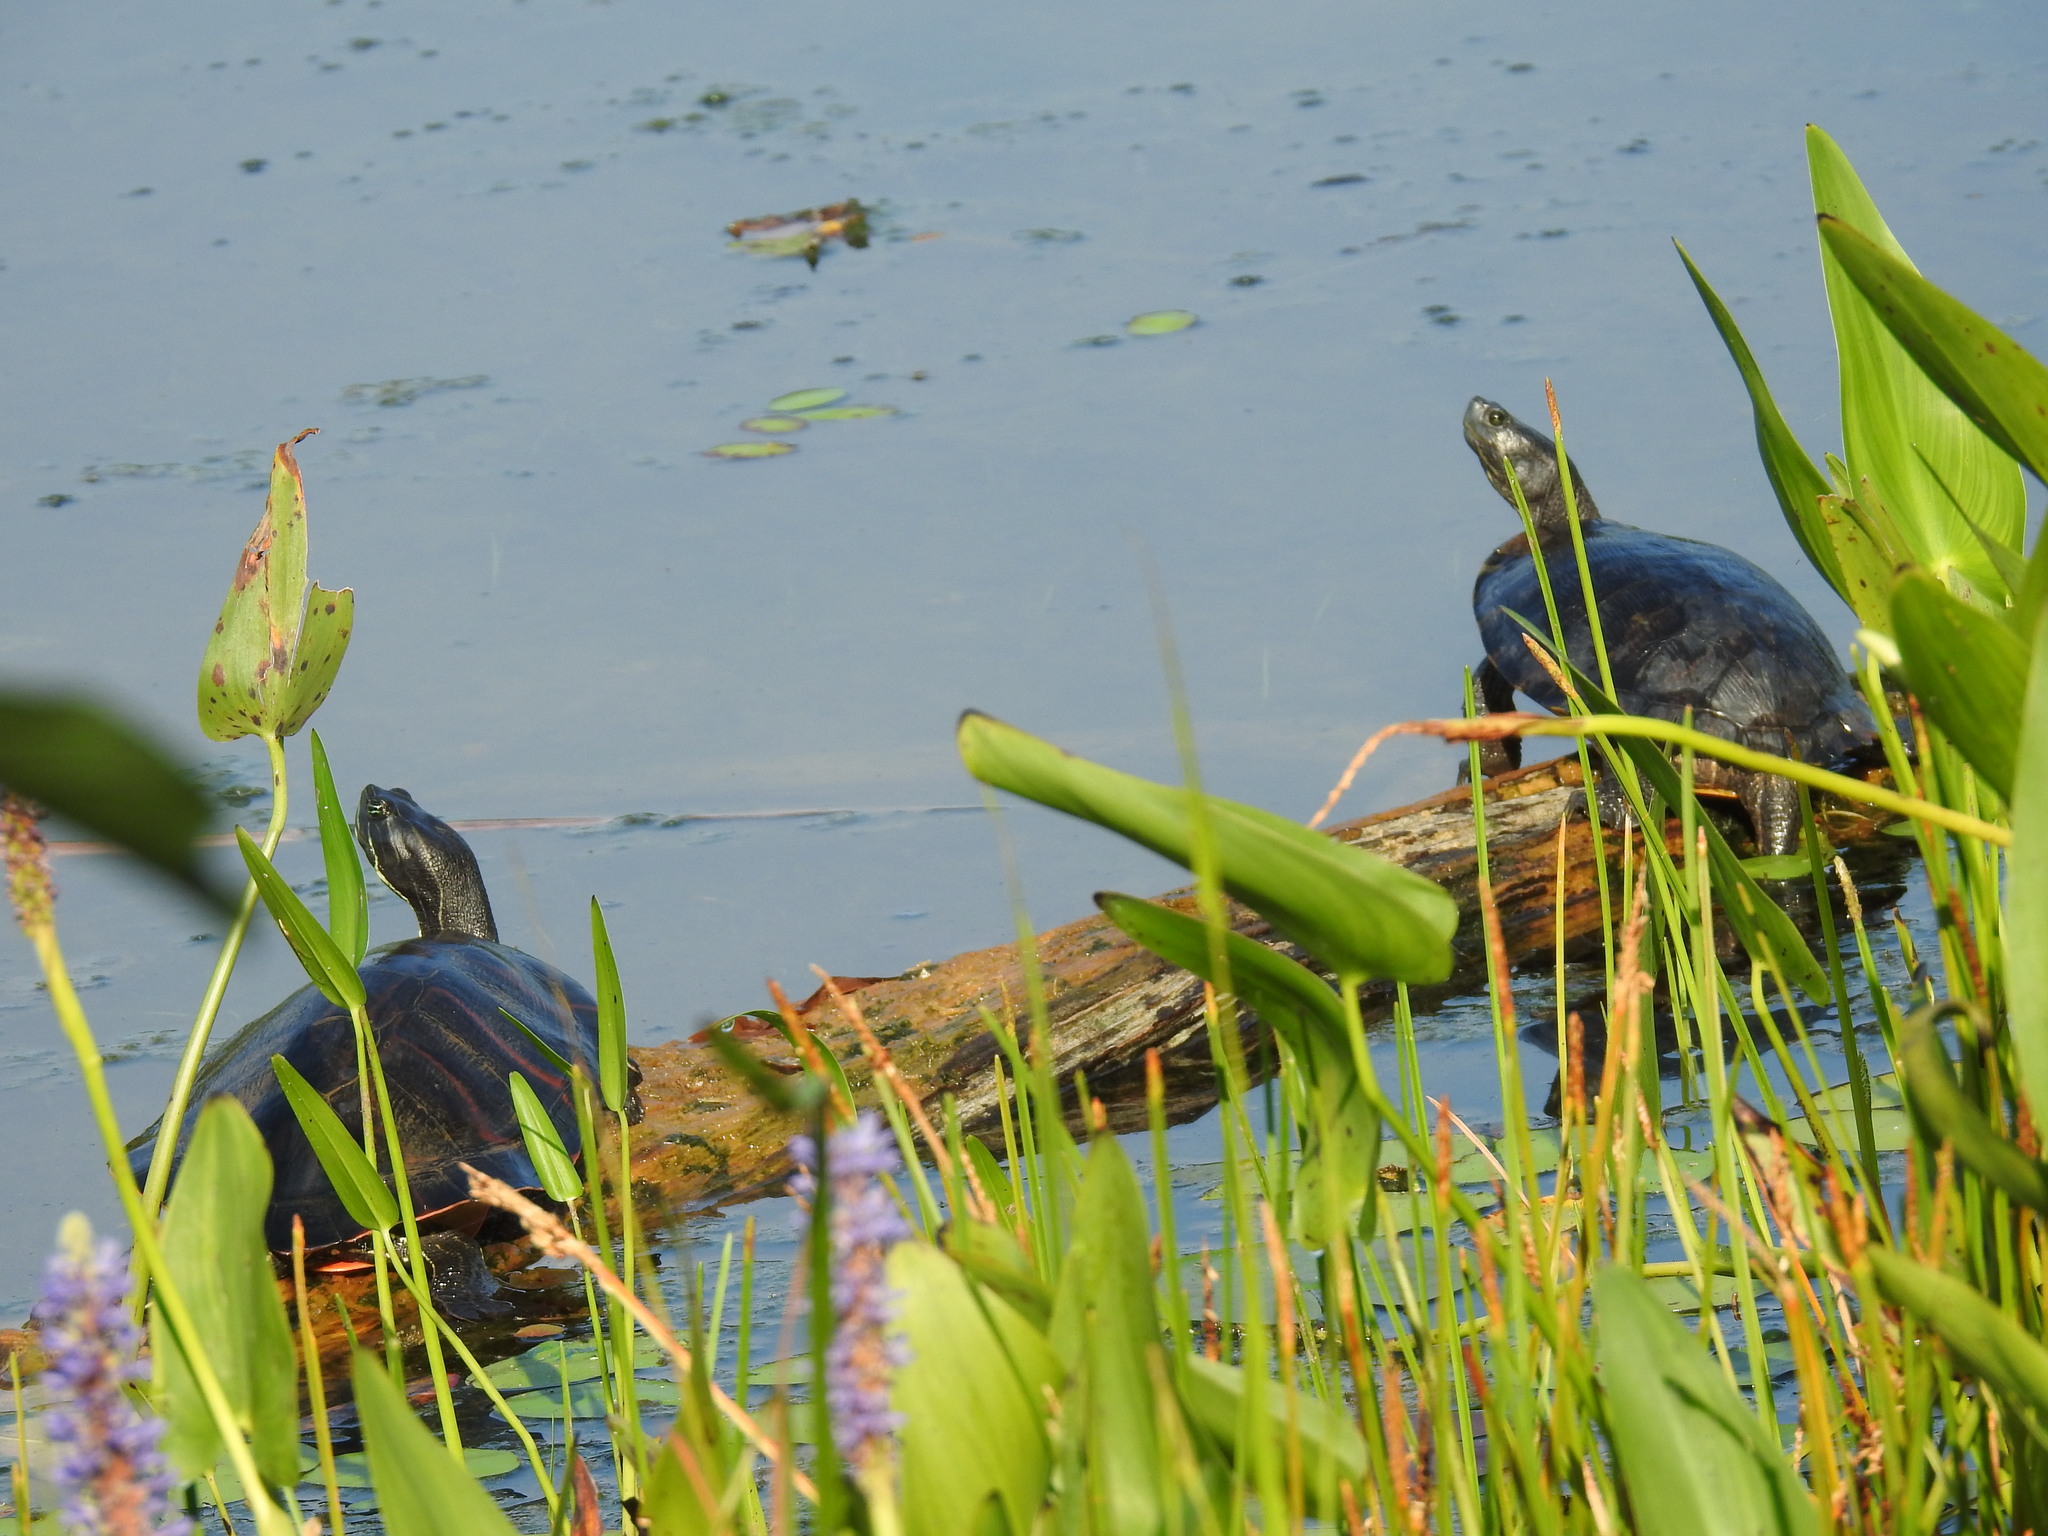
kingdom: Animalia
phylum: Chordata
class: Testudines
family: Emydidae
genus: Pseudemys
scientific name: Pseudemys rubriventris
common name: American red-bellied turtle
